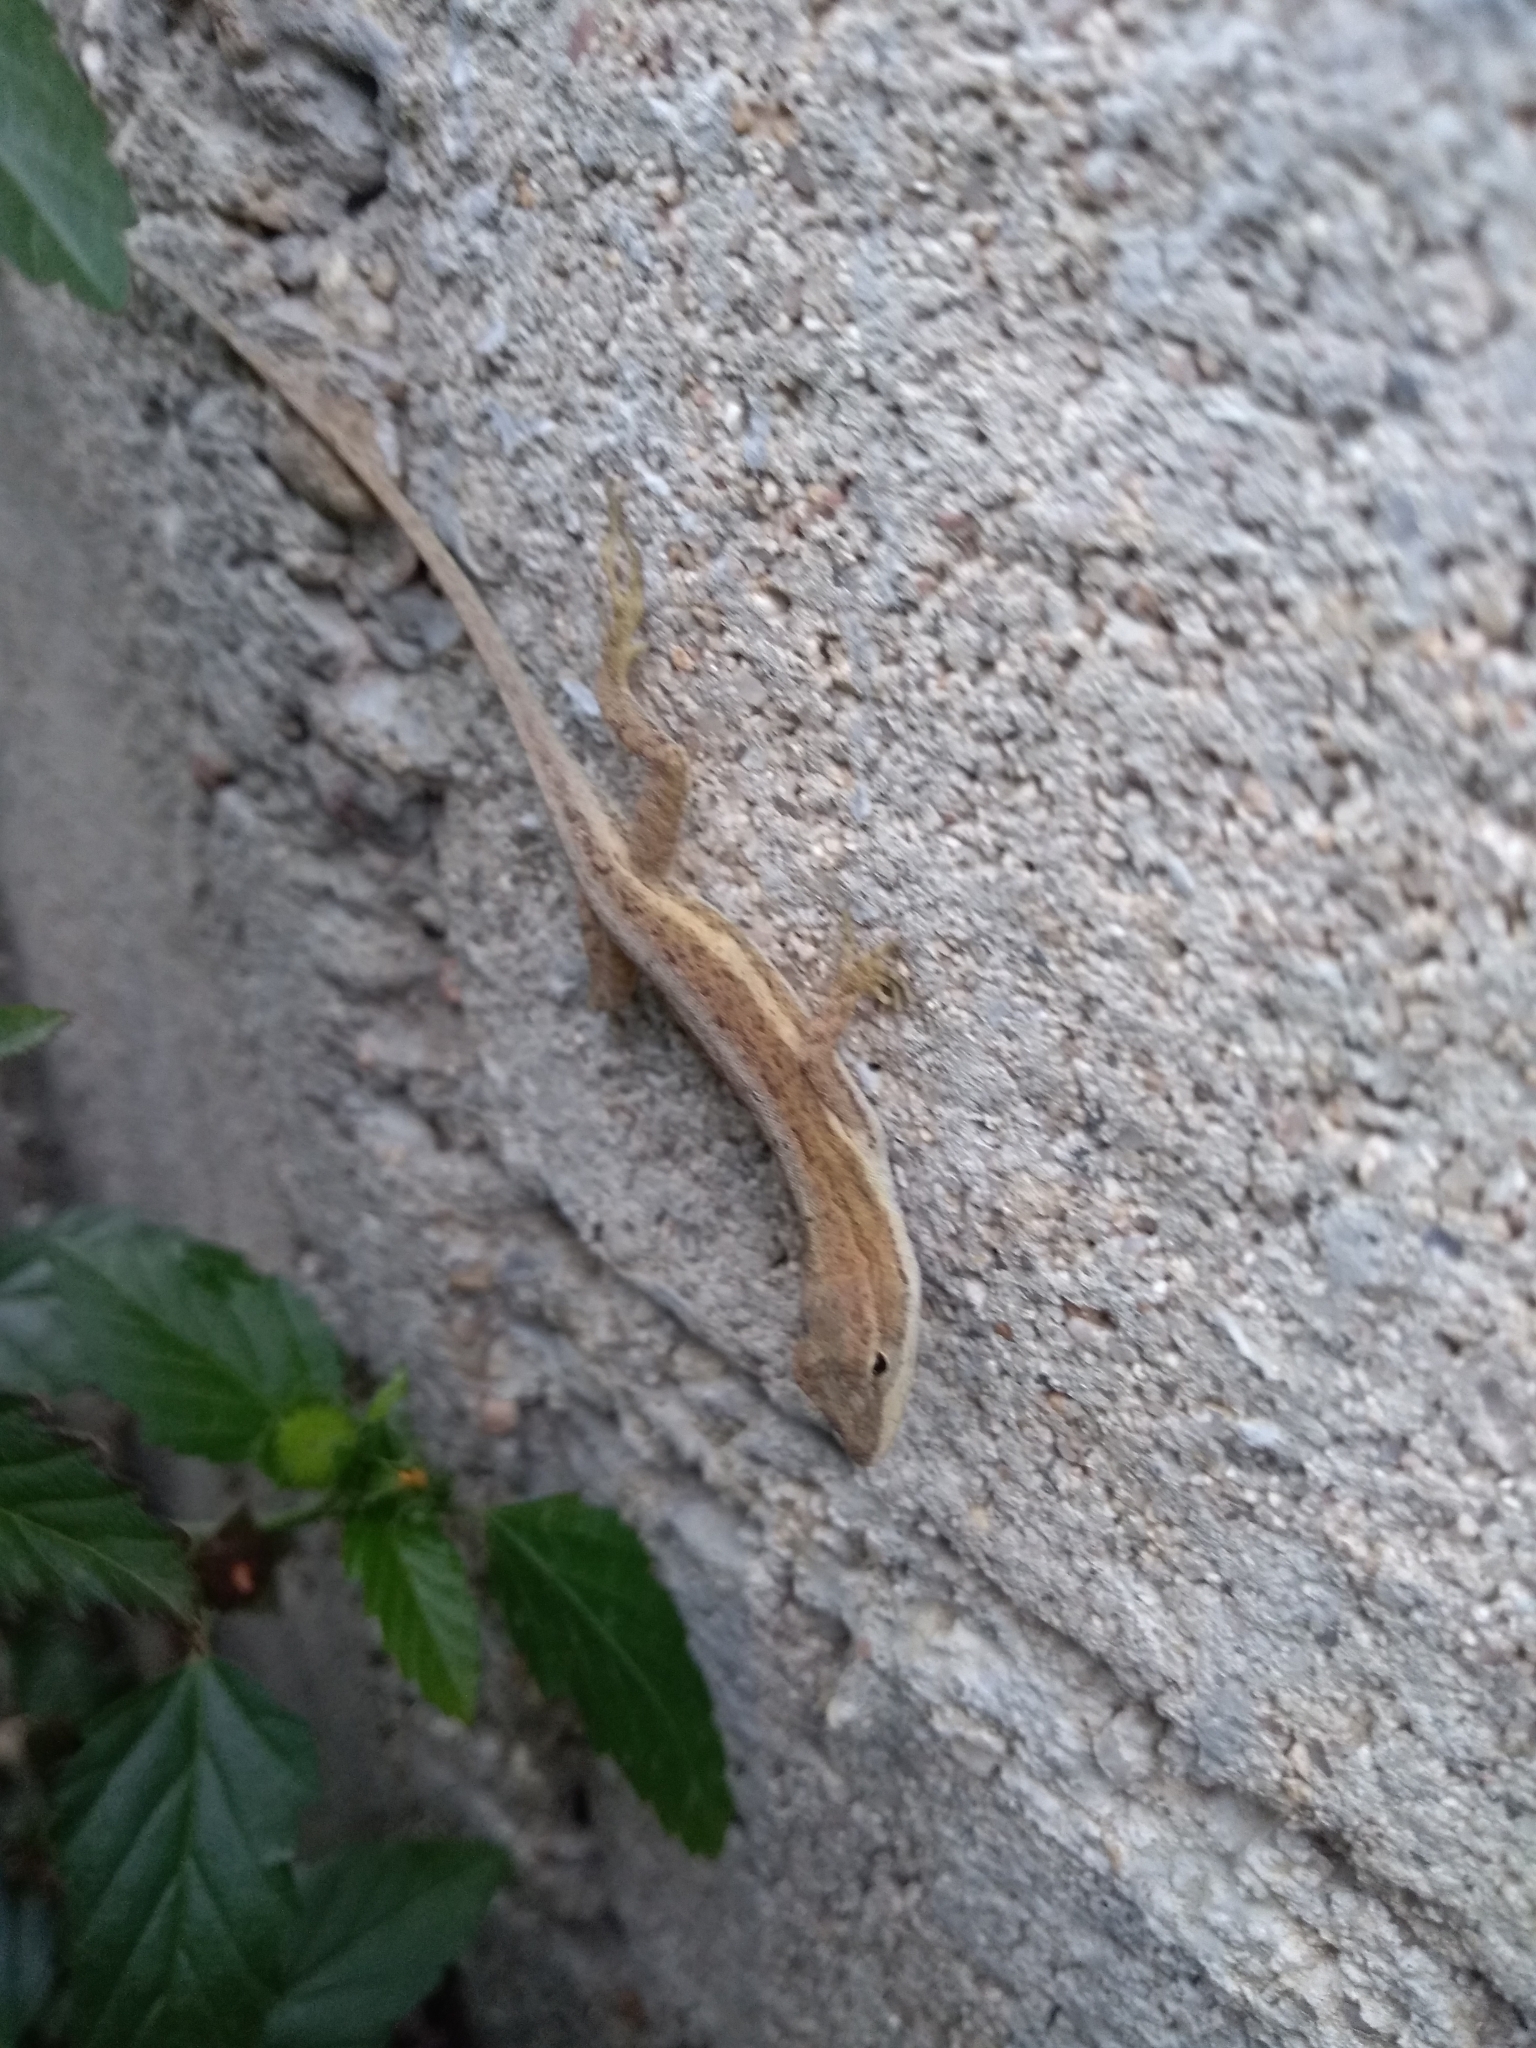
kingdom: Animalia
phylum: Chordata
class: Squamata
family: Dactyloidae
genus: Anolis
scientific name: Anolis quercorum
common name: Gray anole
